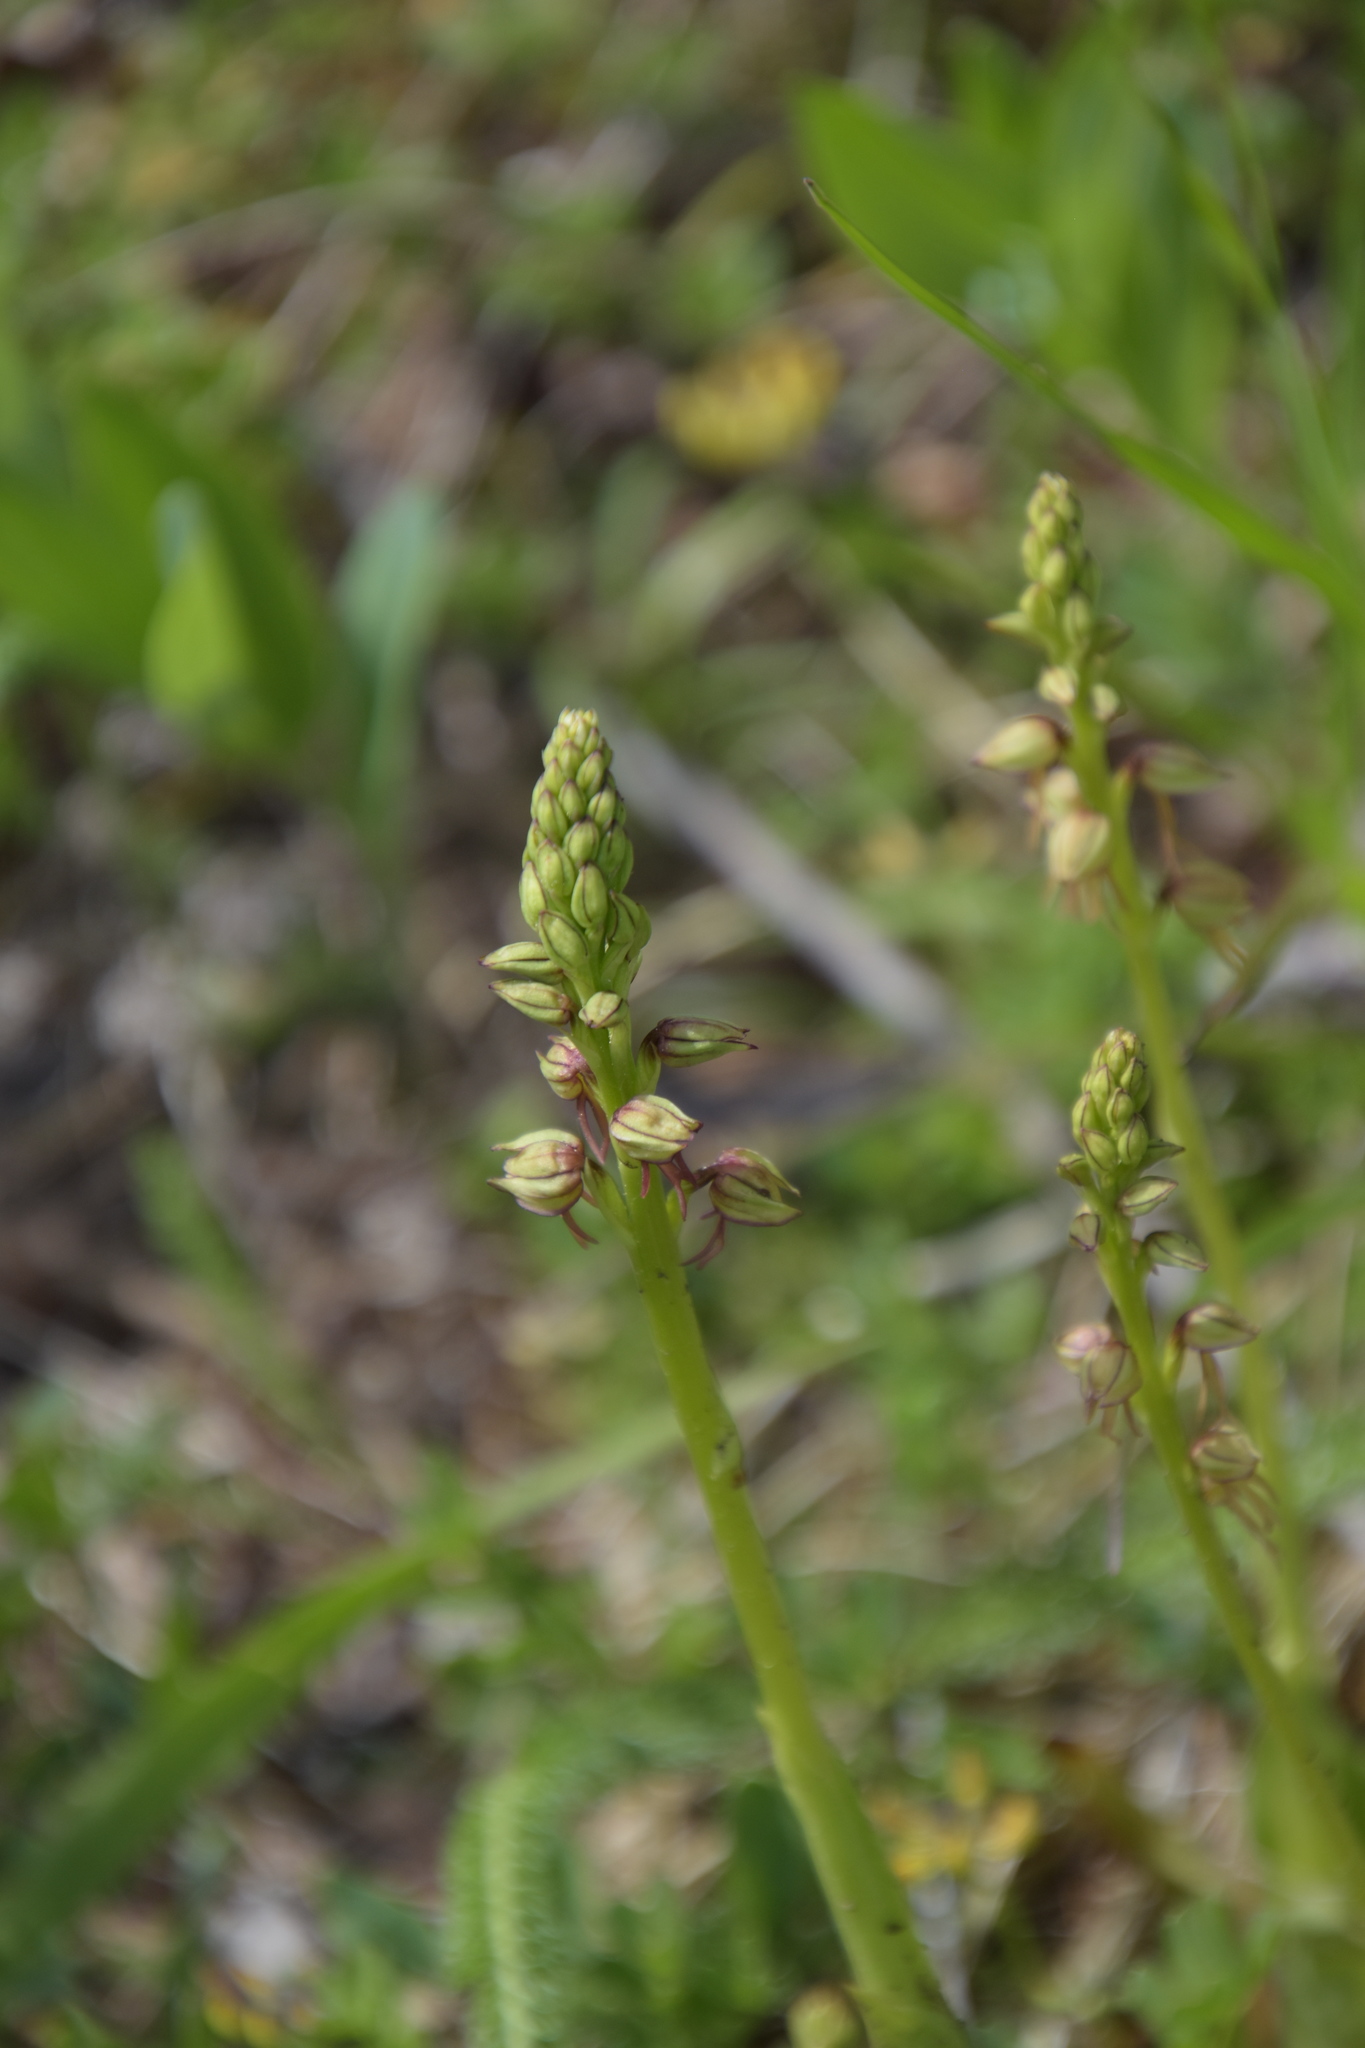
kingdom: Plantae
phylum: Tracheophyta
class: Liliopsida
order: Asparagales
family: Orchidaceae
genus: Orchis
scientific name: Orchis anthropophora
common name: Man orchid
